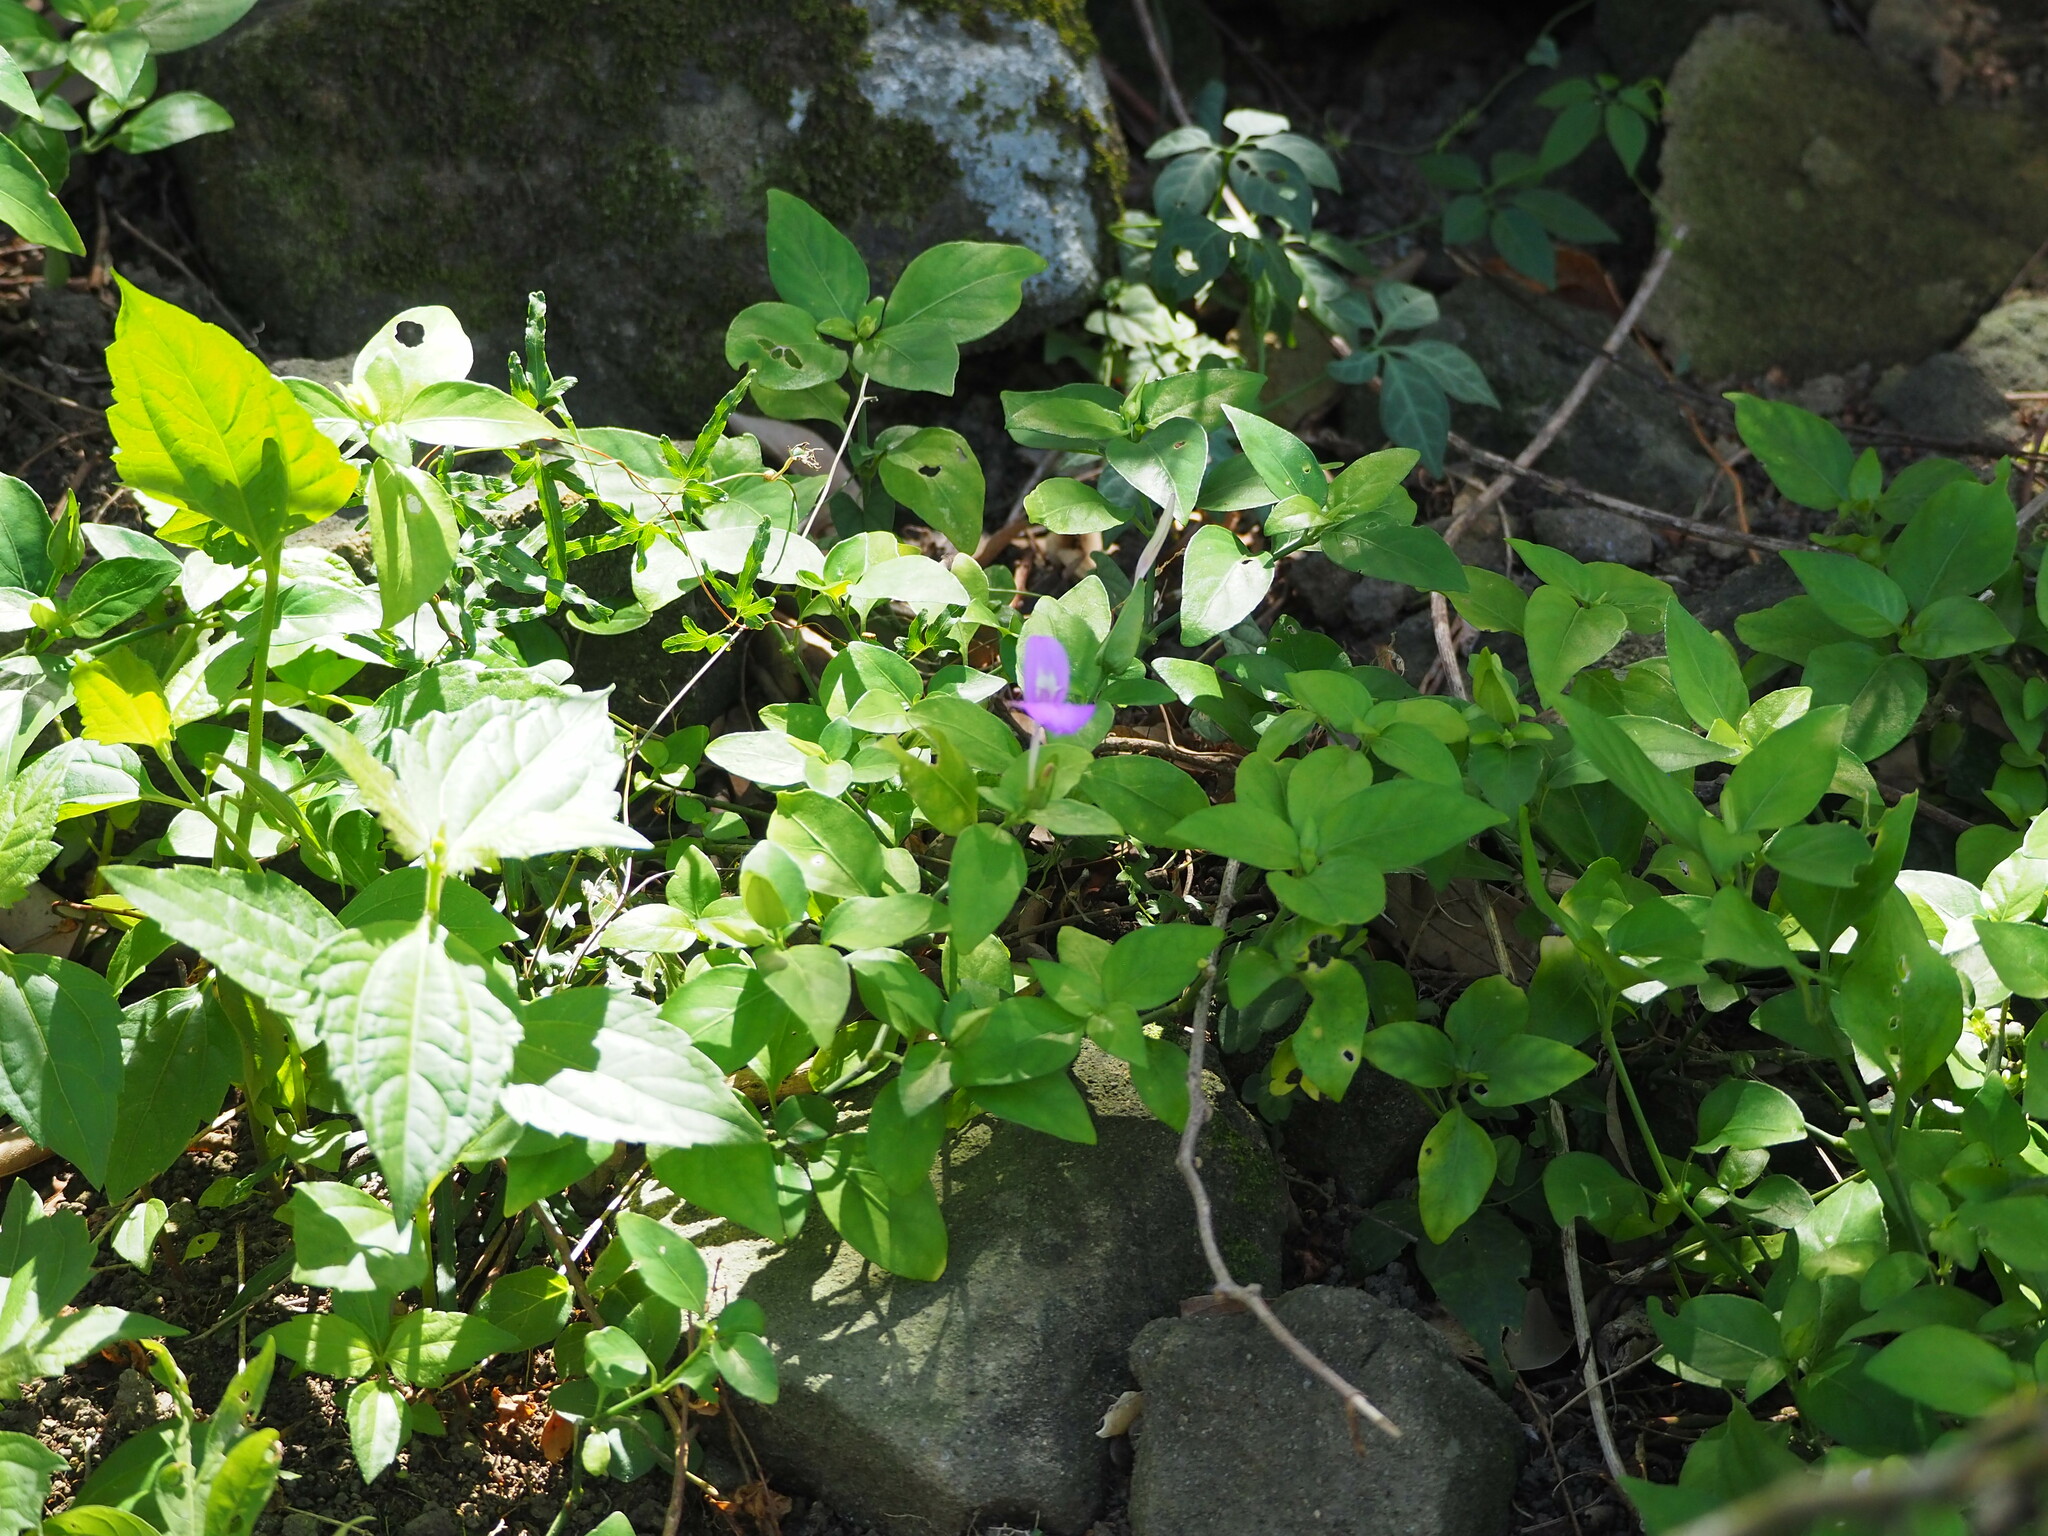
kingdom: Plantae
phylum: Tracheophyta
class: Magnoliopsida
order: Lamiales
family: Acanthaceae
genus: Dicliptera
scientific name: Dicliptera tinctoria
